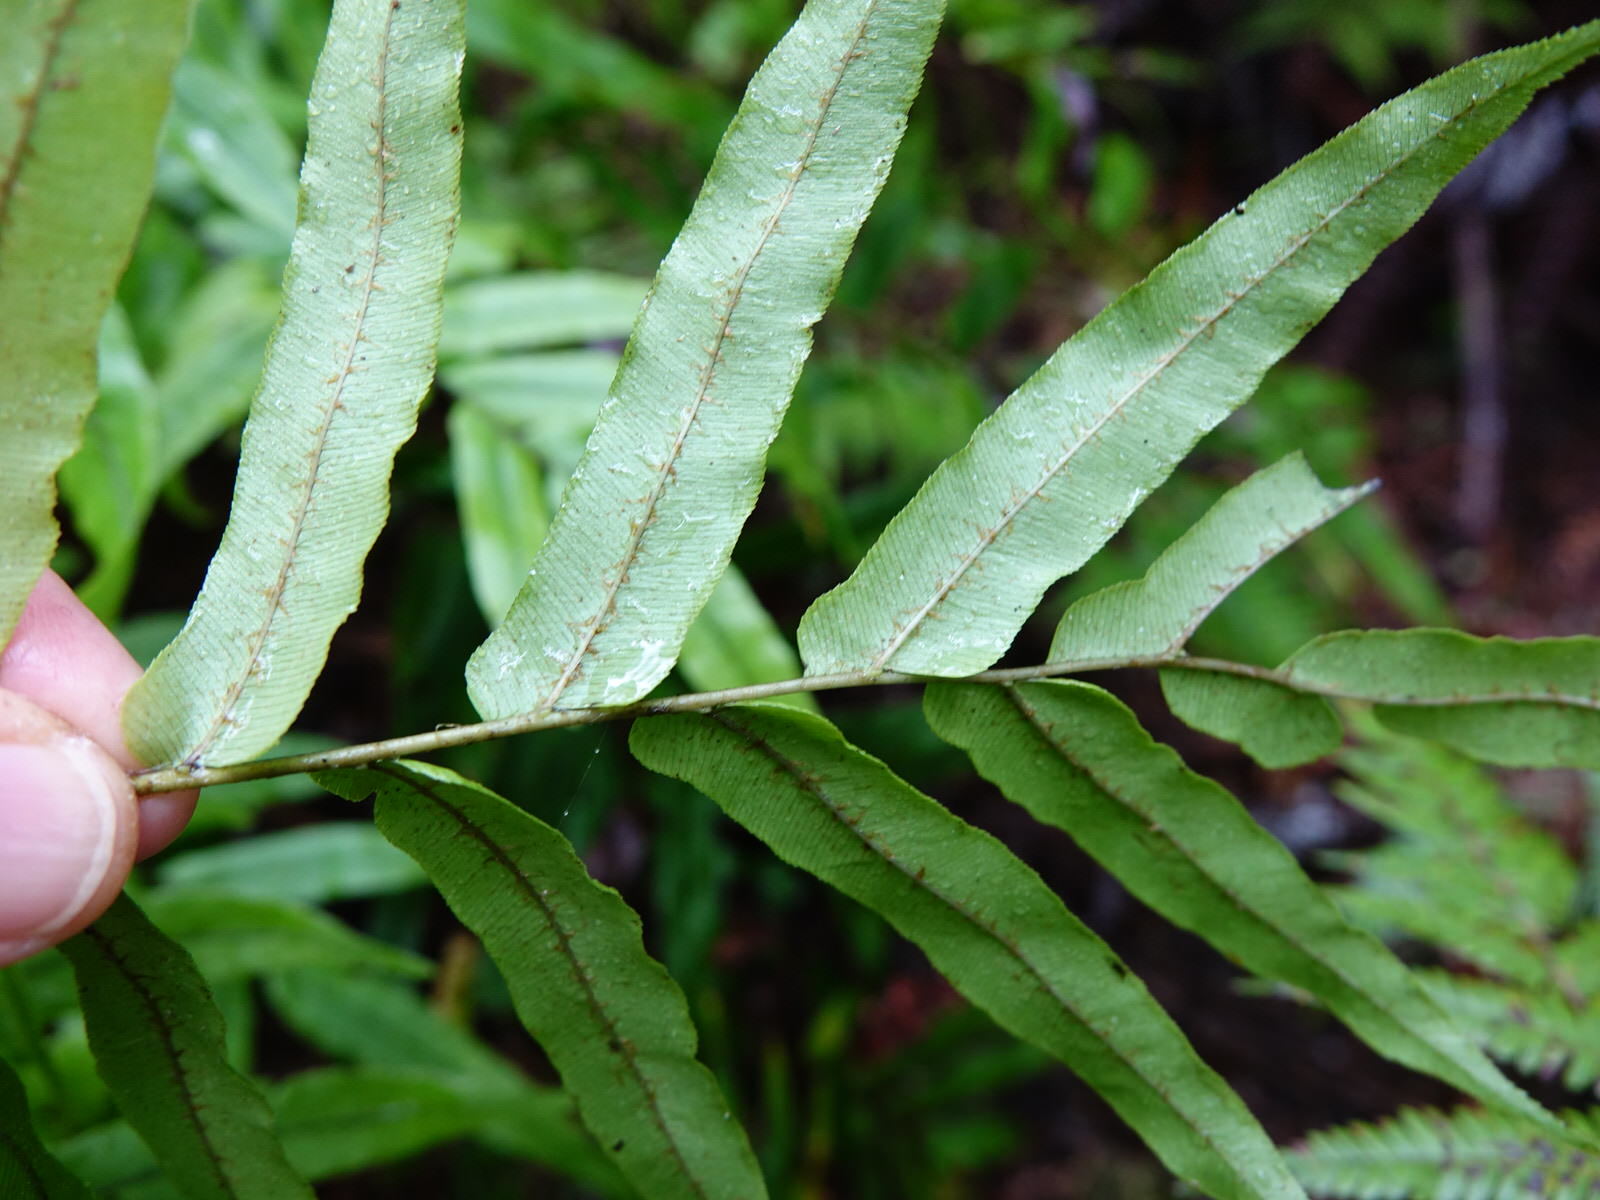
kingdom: Plantae
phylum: Tracheophyta
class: Polypodiopsida
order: Polypodiales
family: Blechnaceae
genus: Parablechnum
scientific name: Parablechnum minus
